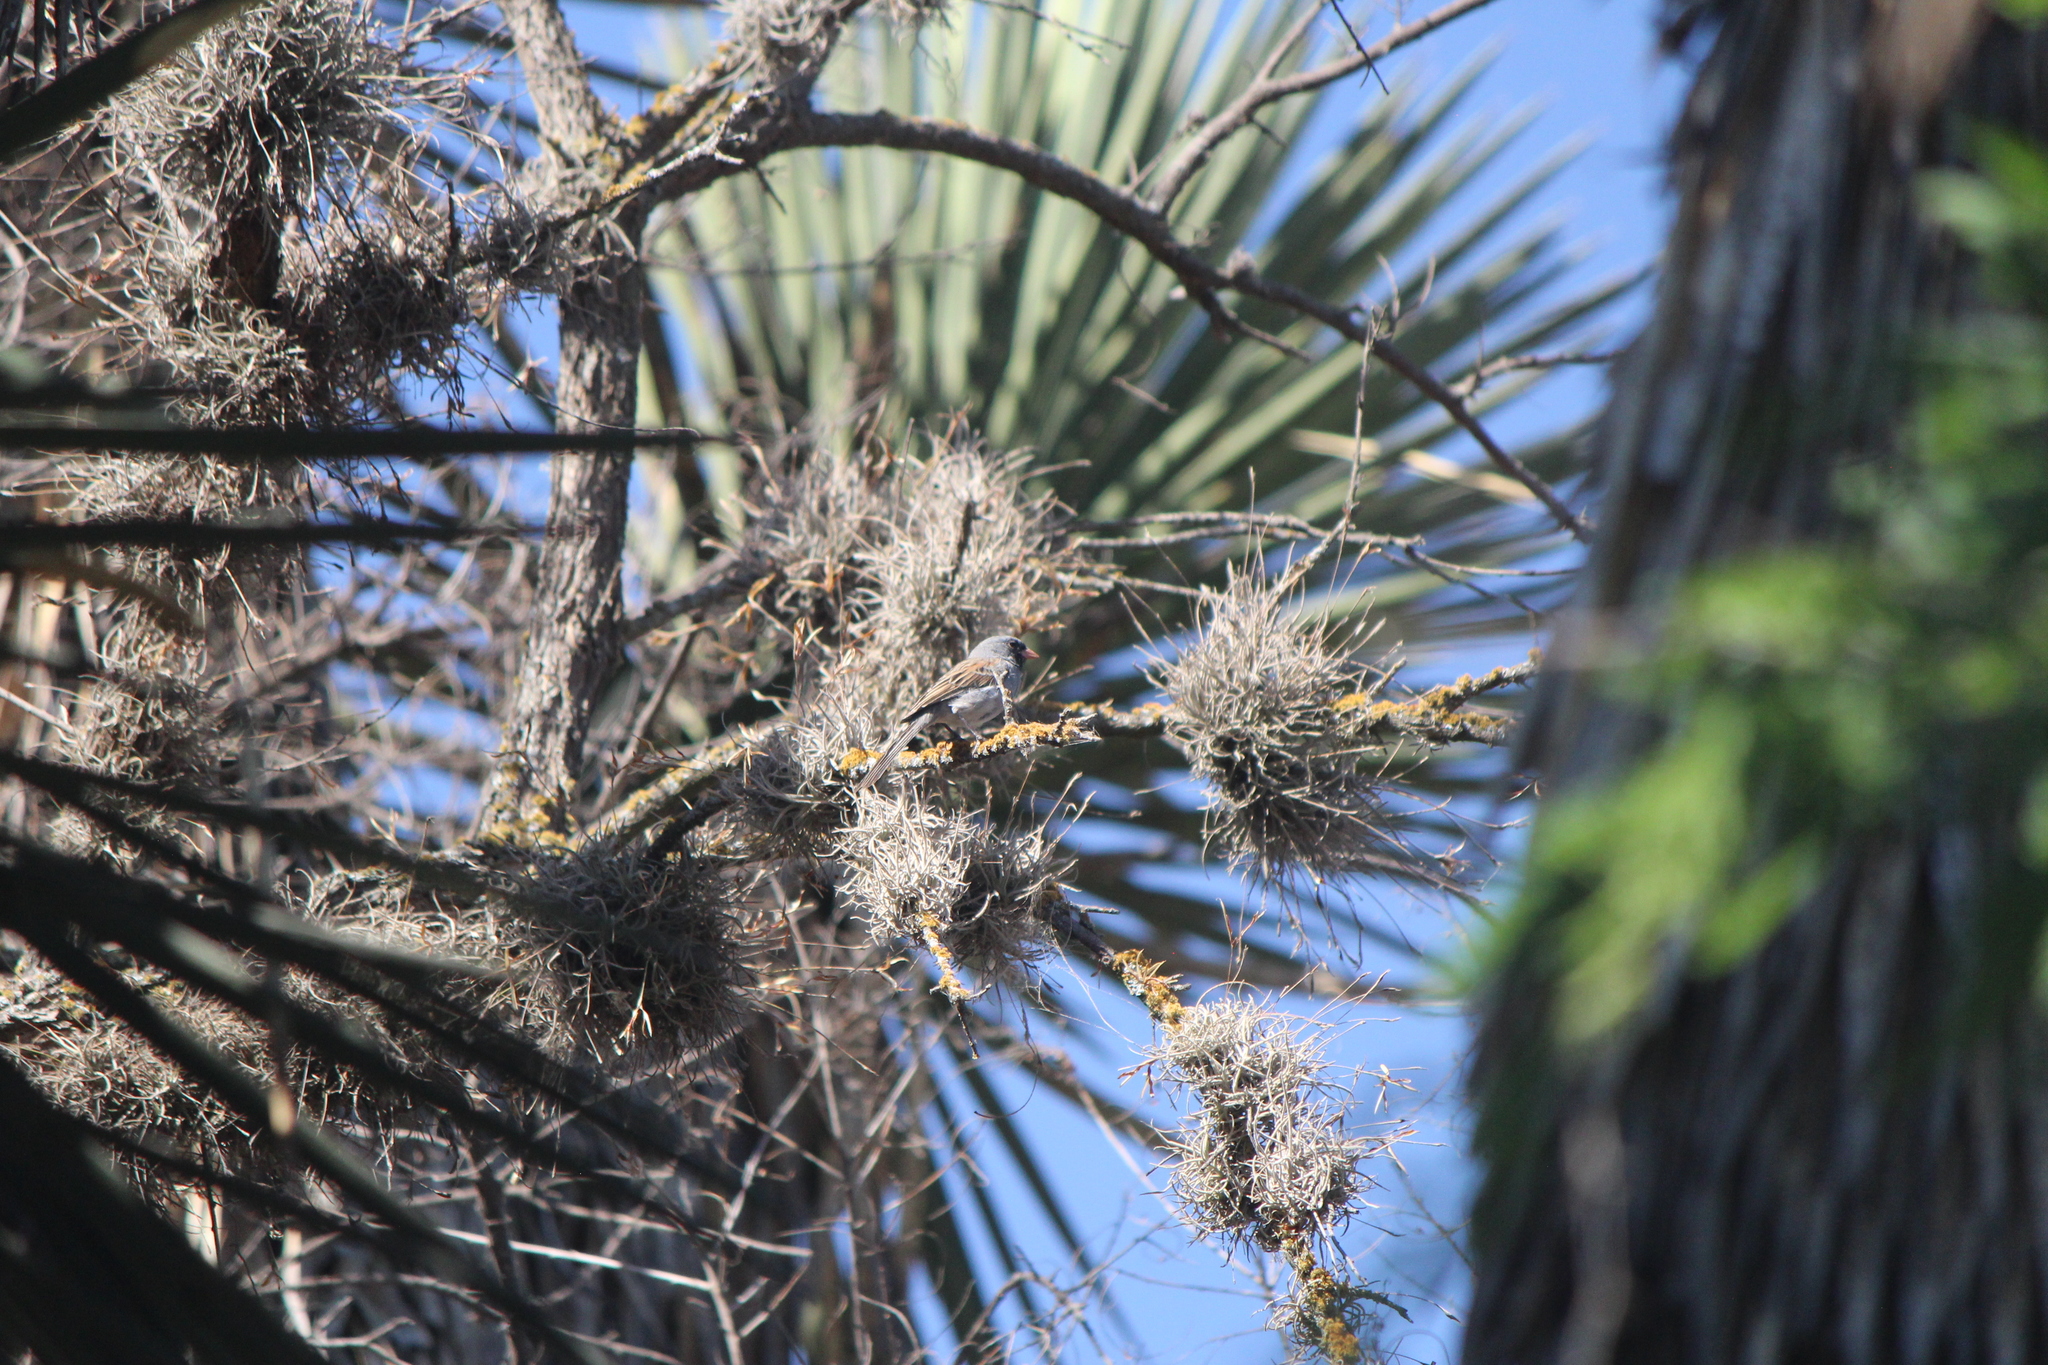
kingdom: Animalia
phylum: Chordata
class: Aves
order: Passeriformes
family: Passerellidae
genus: Spizella
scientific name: Spizella atrogularis
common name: Black-chinned sparrow
